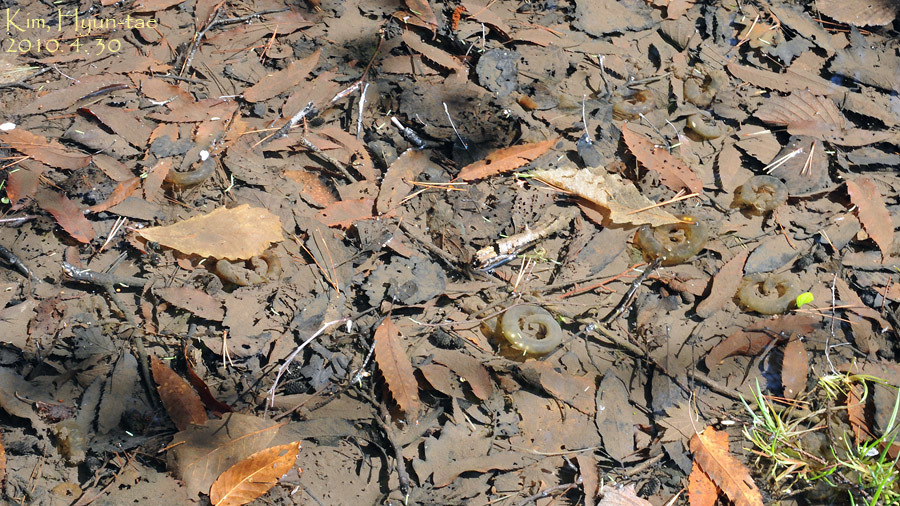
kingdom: Animalia
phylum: Chordata
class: Amphibia
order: Caudata
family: Hynobiidae
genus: Hynobius
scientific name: Hynobius leechii
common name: Gensan salamander
